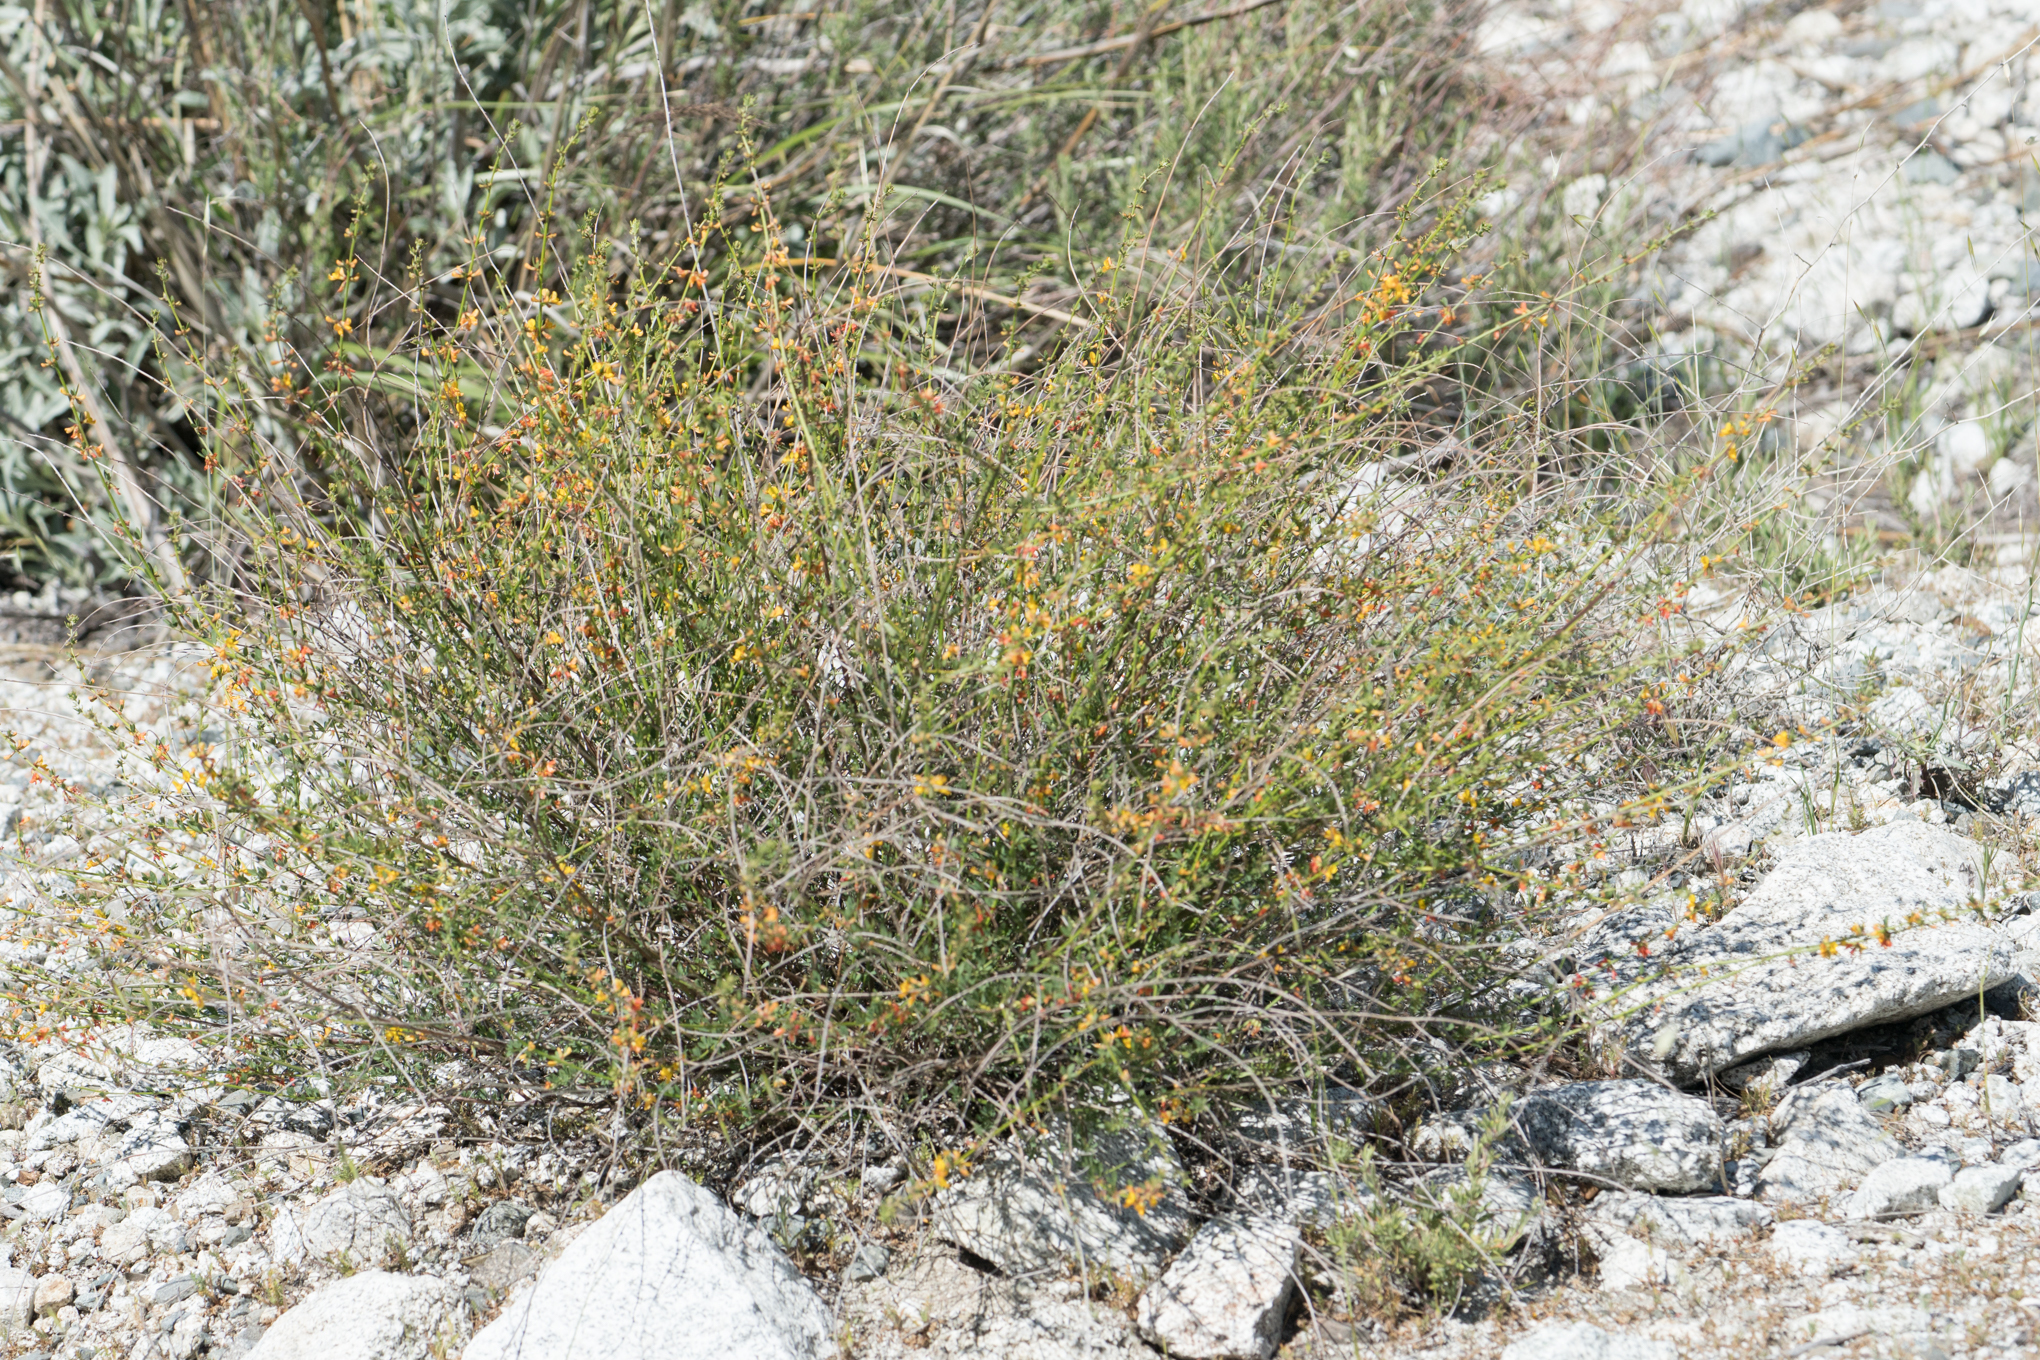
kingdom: Plantae
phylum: Tracheophyta
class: Magnoliopsida
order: Fabales
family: Fabaceae
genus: Acmispon
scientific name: Acmispon glaber
